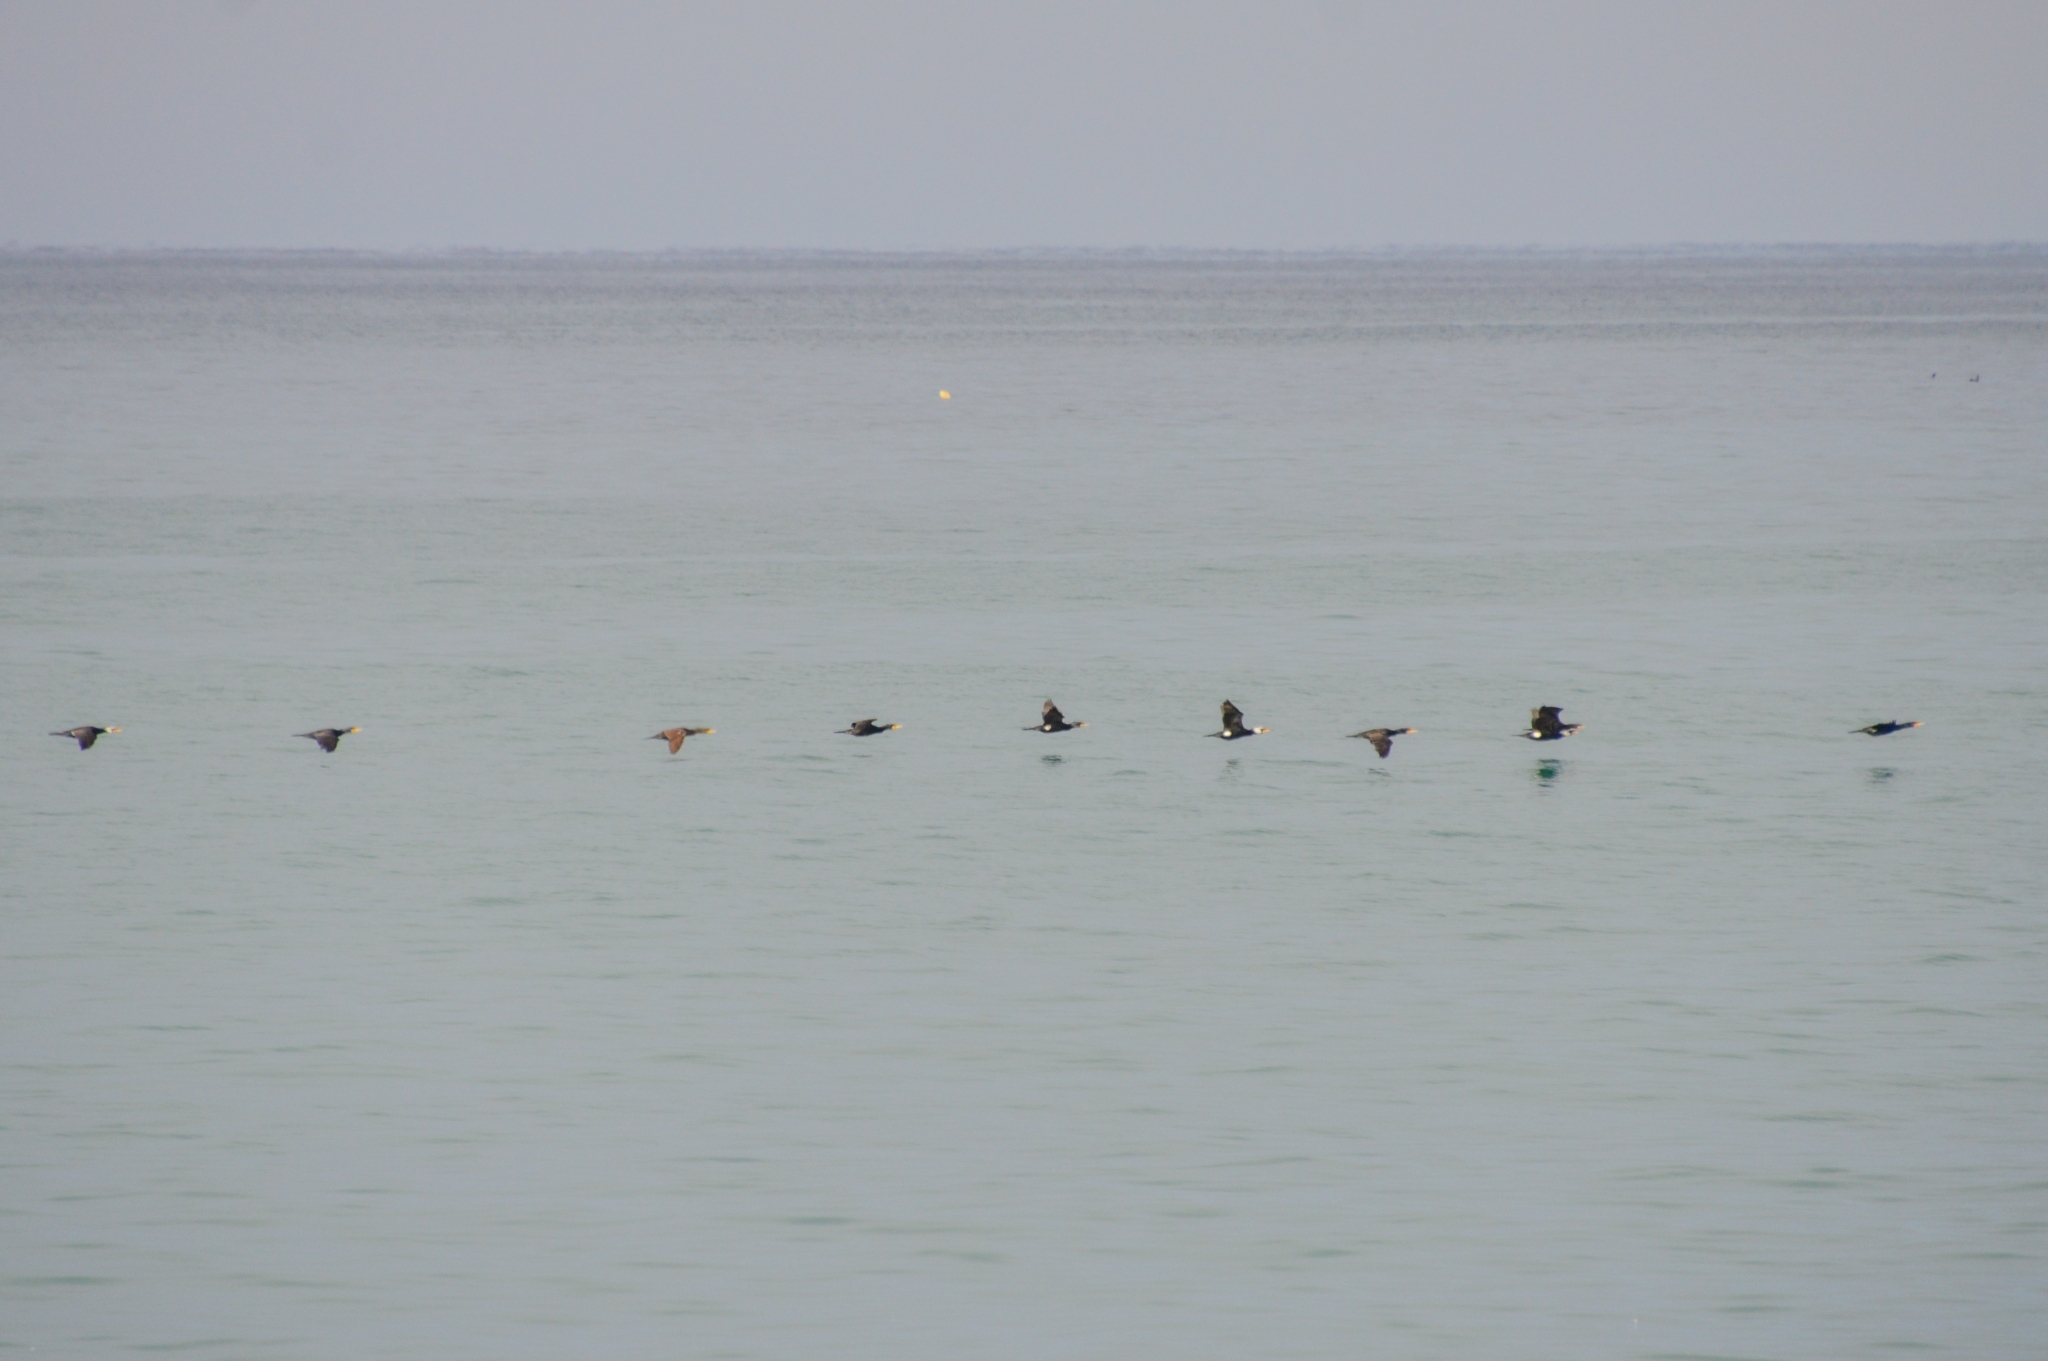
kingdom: Animalia
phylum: Chordata
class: Aves
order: Suliformes
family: Phalacrocoracidae
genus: Phalacrocorax
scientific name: Phalacrocorax carbo
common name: Great cormorant
